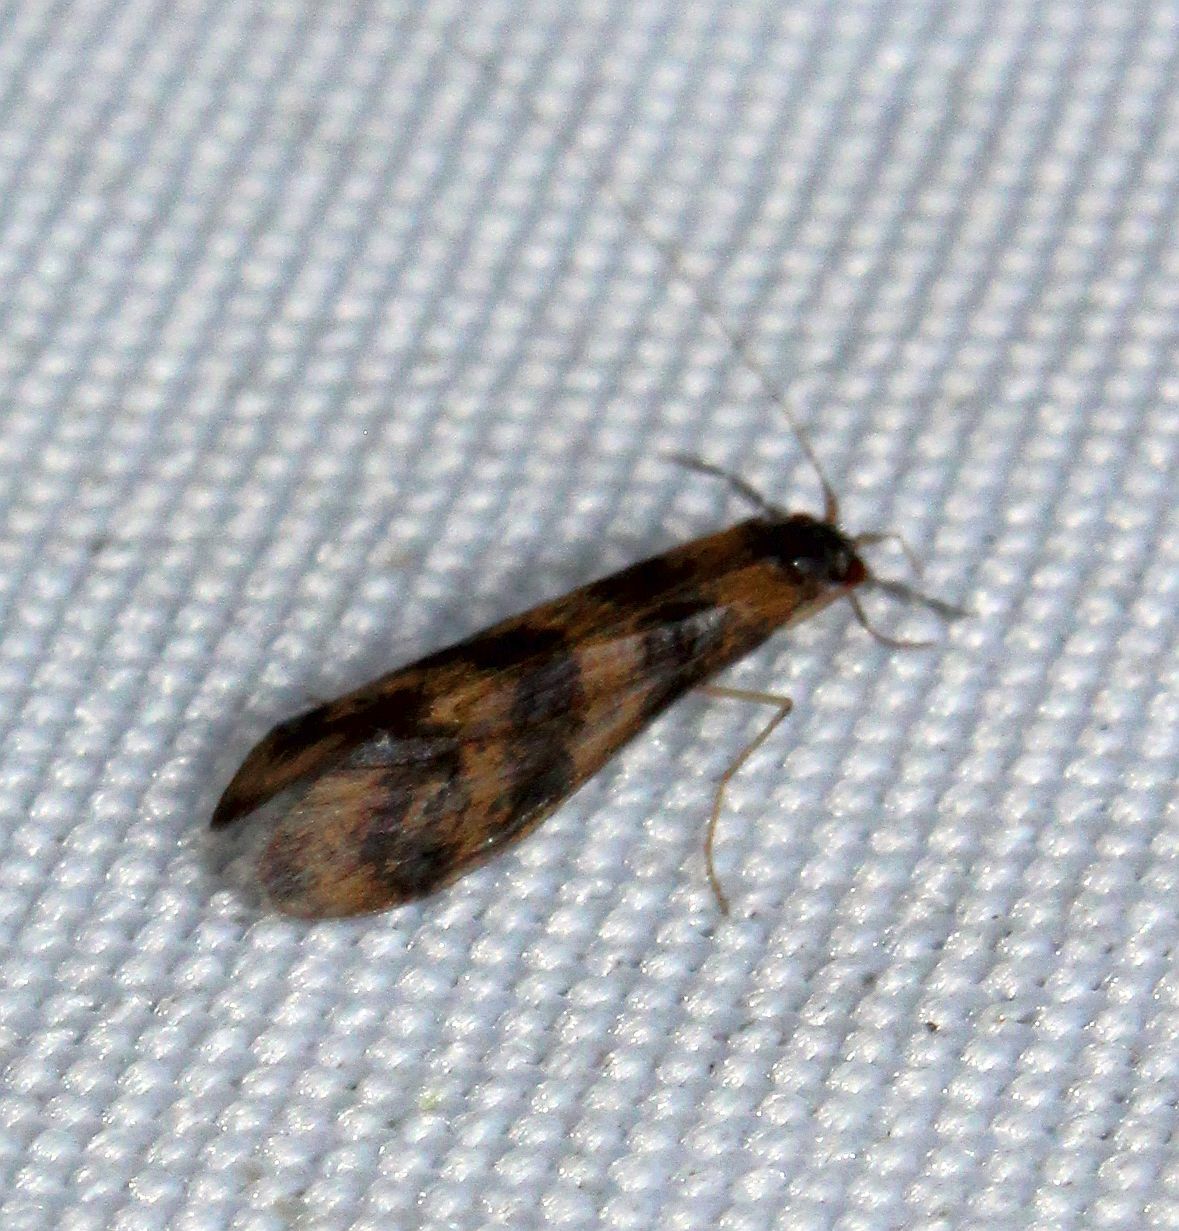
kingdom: Animalia
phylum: Arthropoda
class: Insecta
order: Trichoptera
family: Leptoceridae
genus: Mystacides
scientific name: Mystacides longicornis
